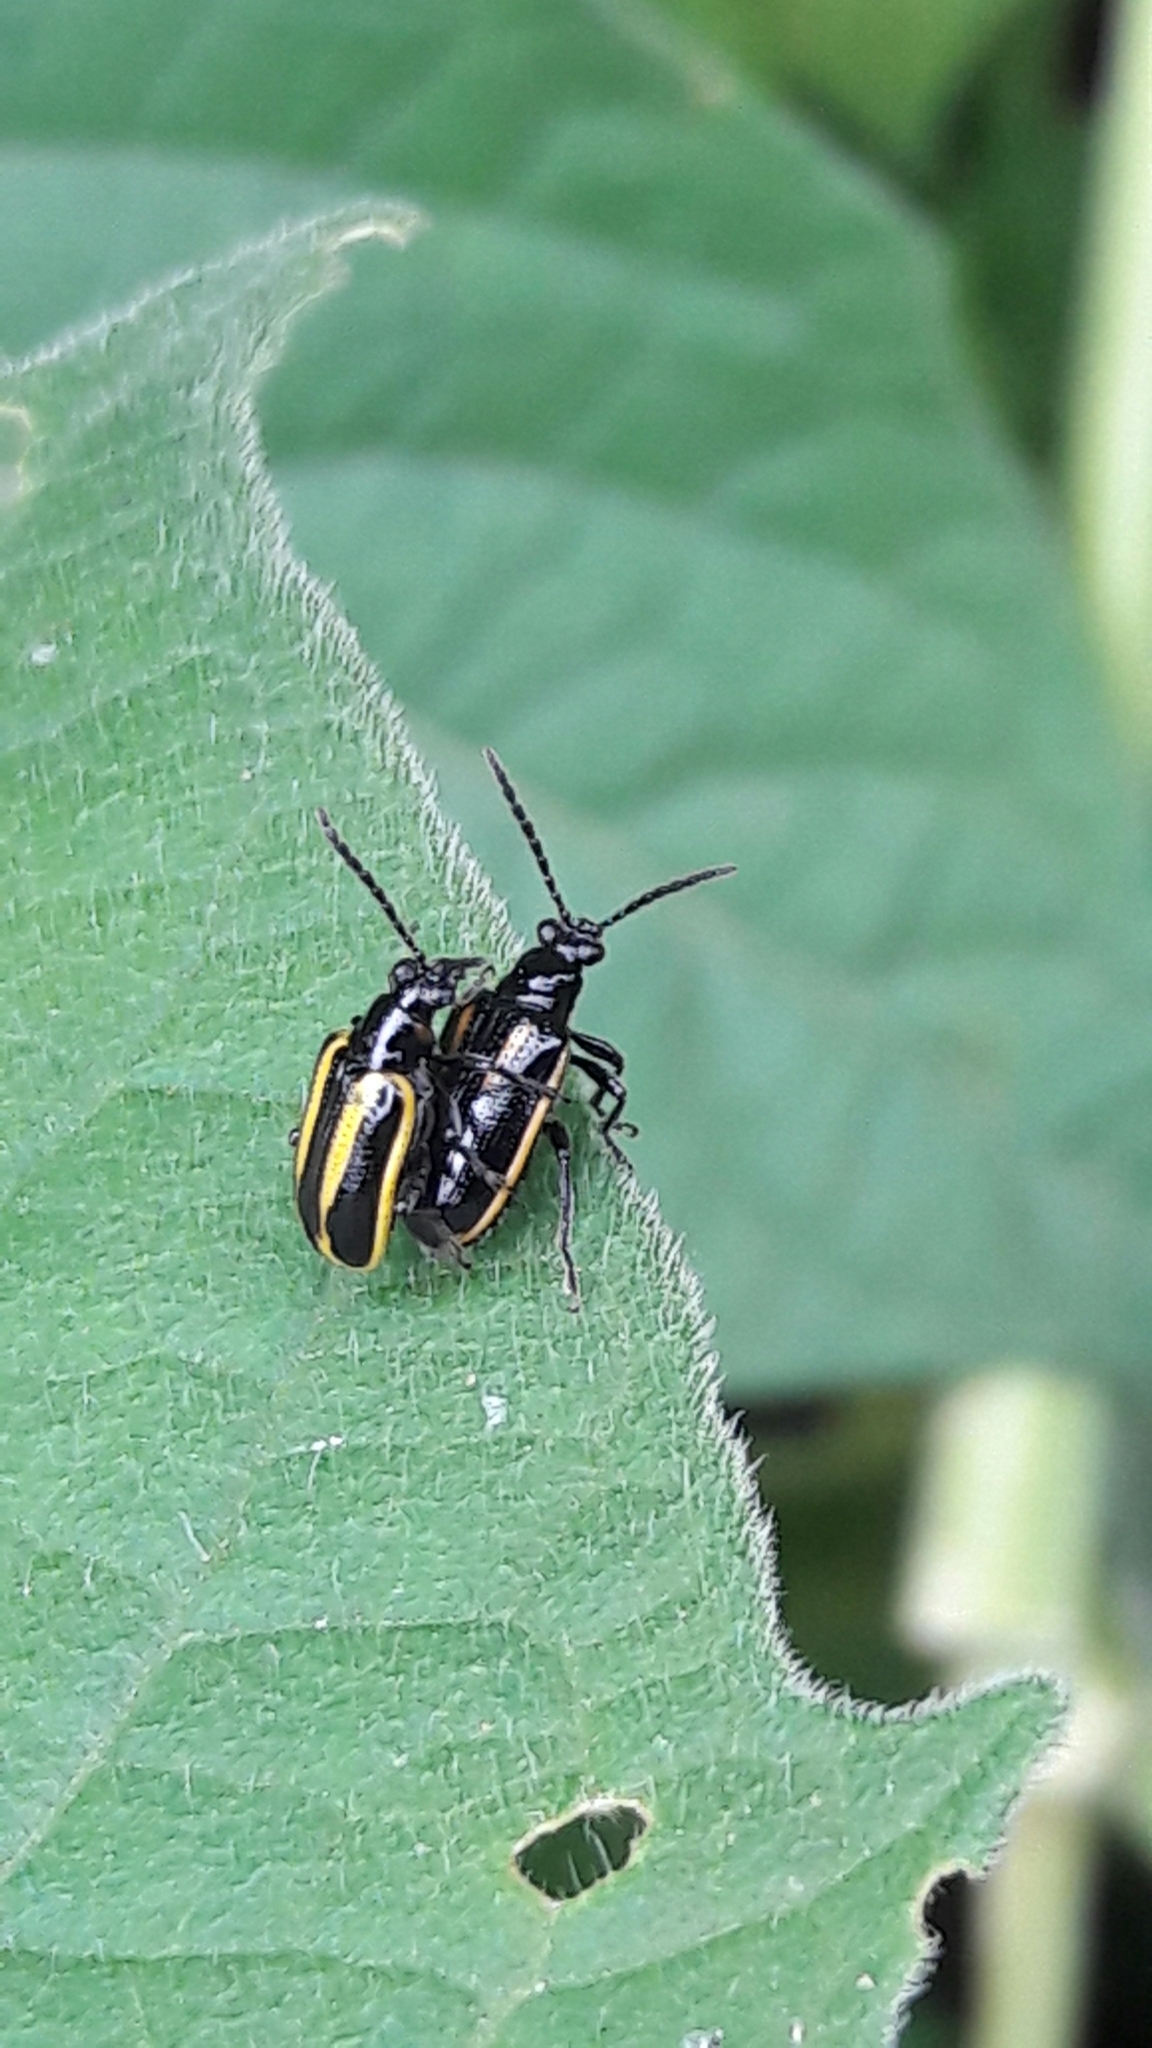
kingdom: Animalia
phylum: Arthropoda
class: Insecta
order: Coleoptera
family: Chrysomelidae
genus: Lema
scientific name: Lema confusa
